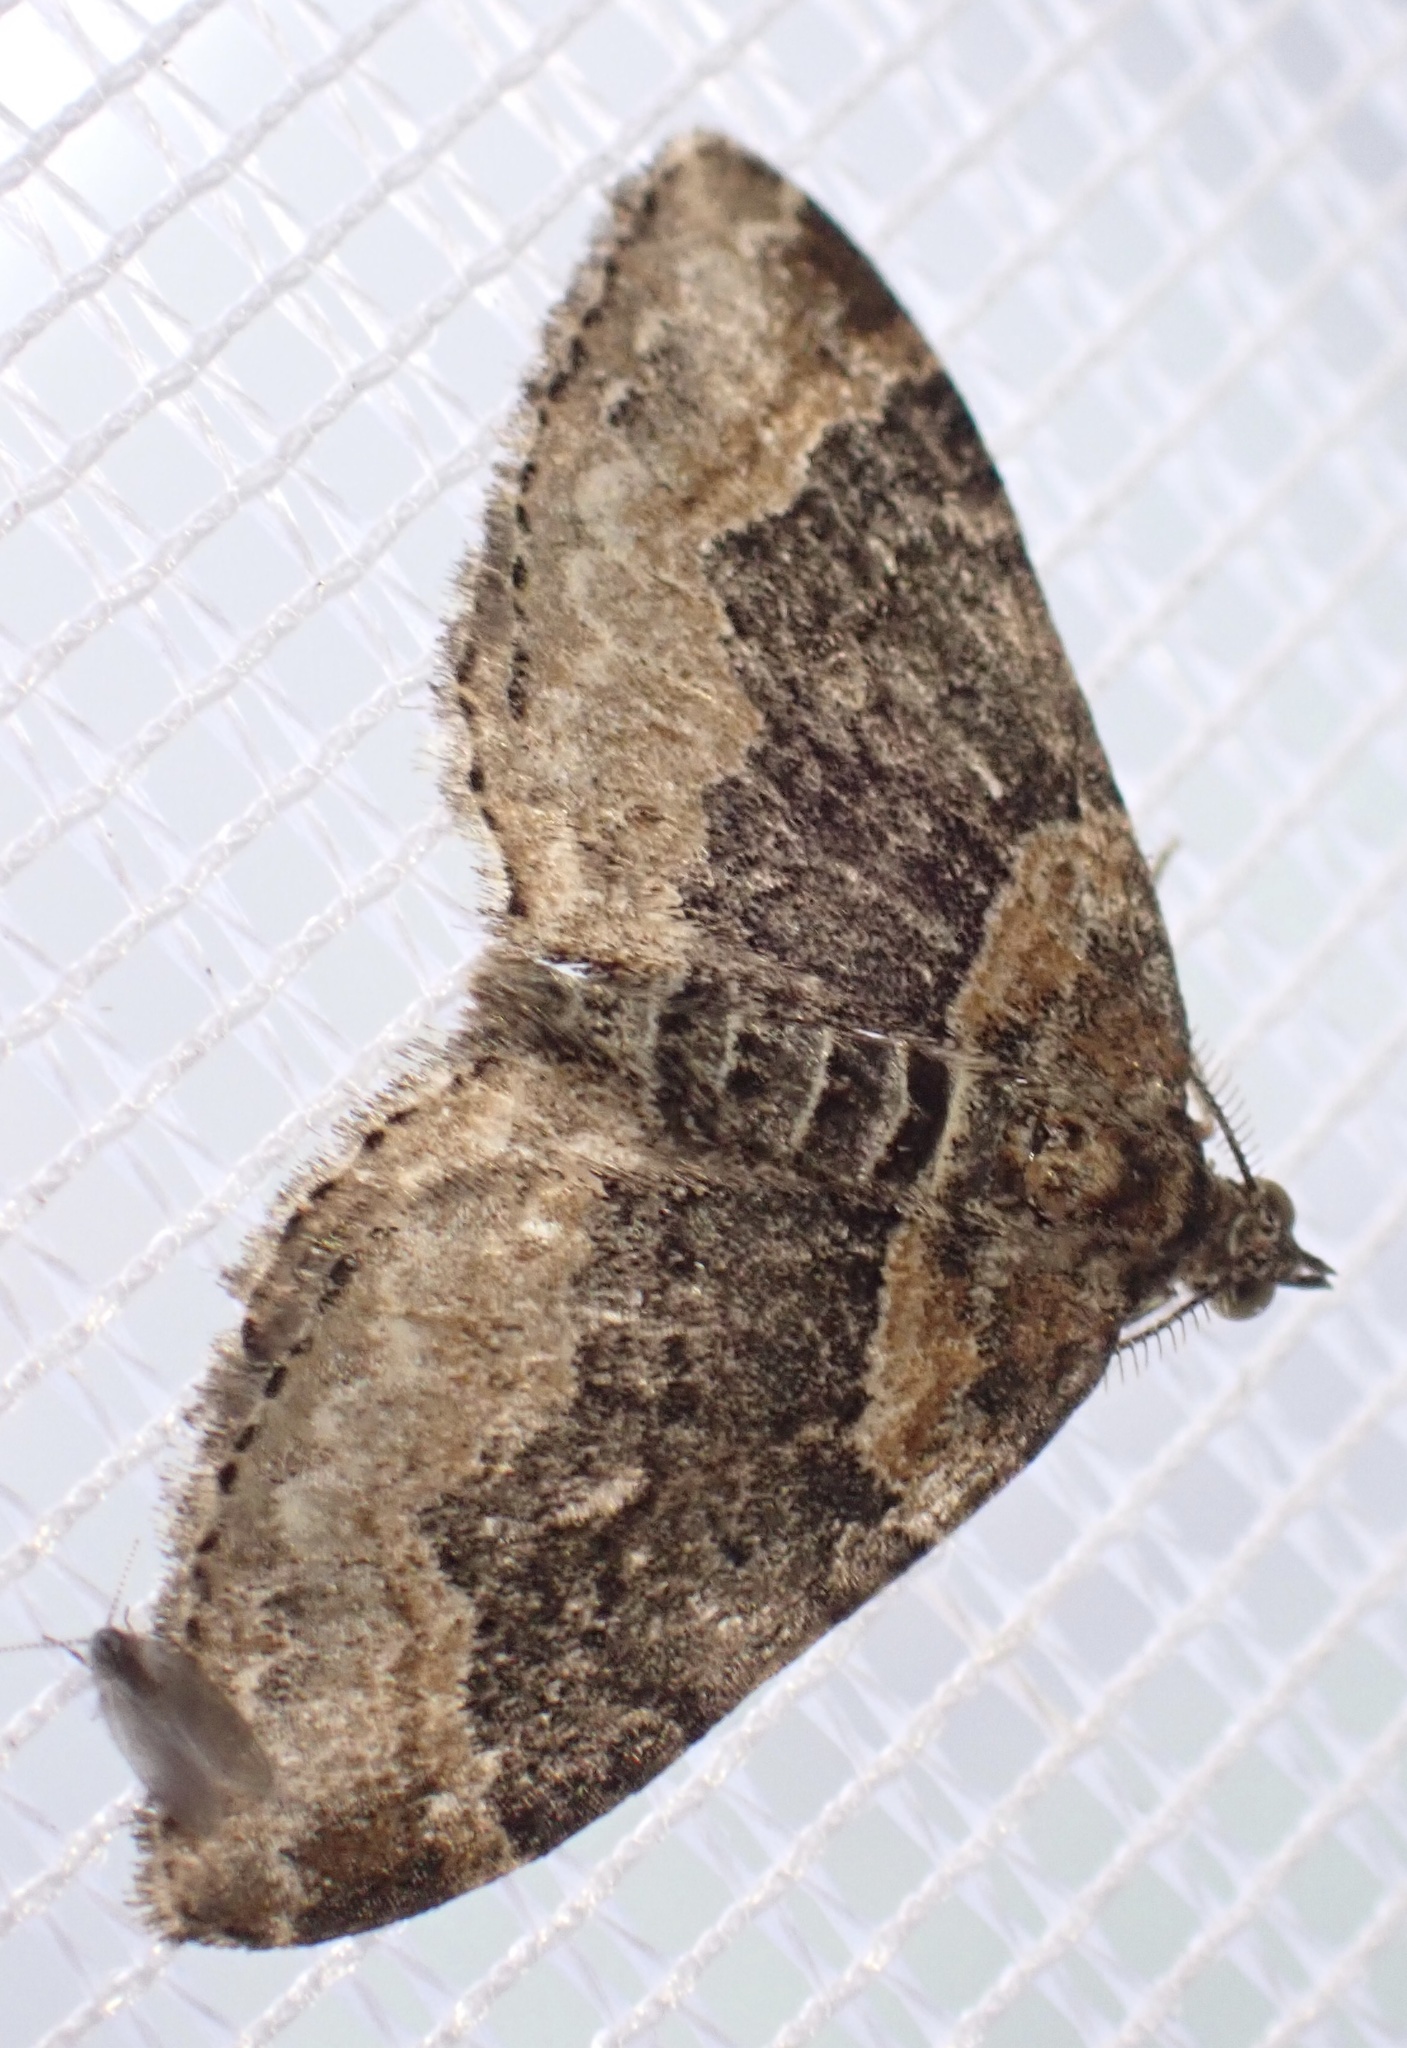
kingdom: Animalia
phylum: Arthropoda
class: Insecta
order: Lepidoptera
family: Geometridae
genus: Xanthorhoe
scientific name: Xanthorhoe ferrugata
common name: Dark-barred twin-spot carpet
